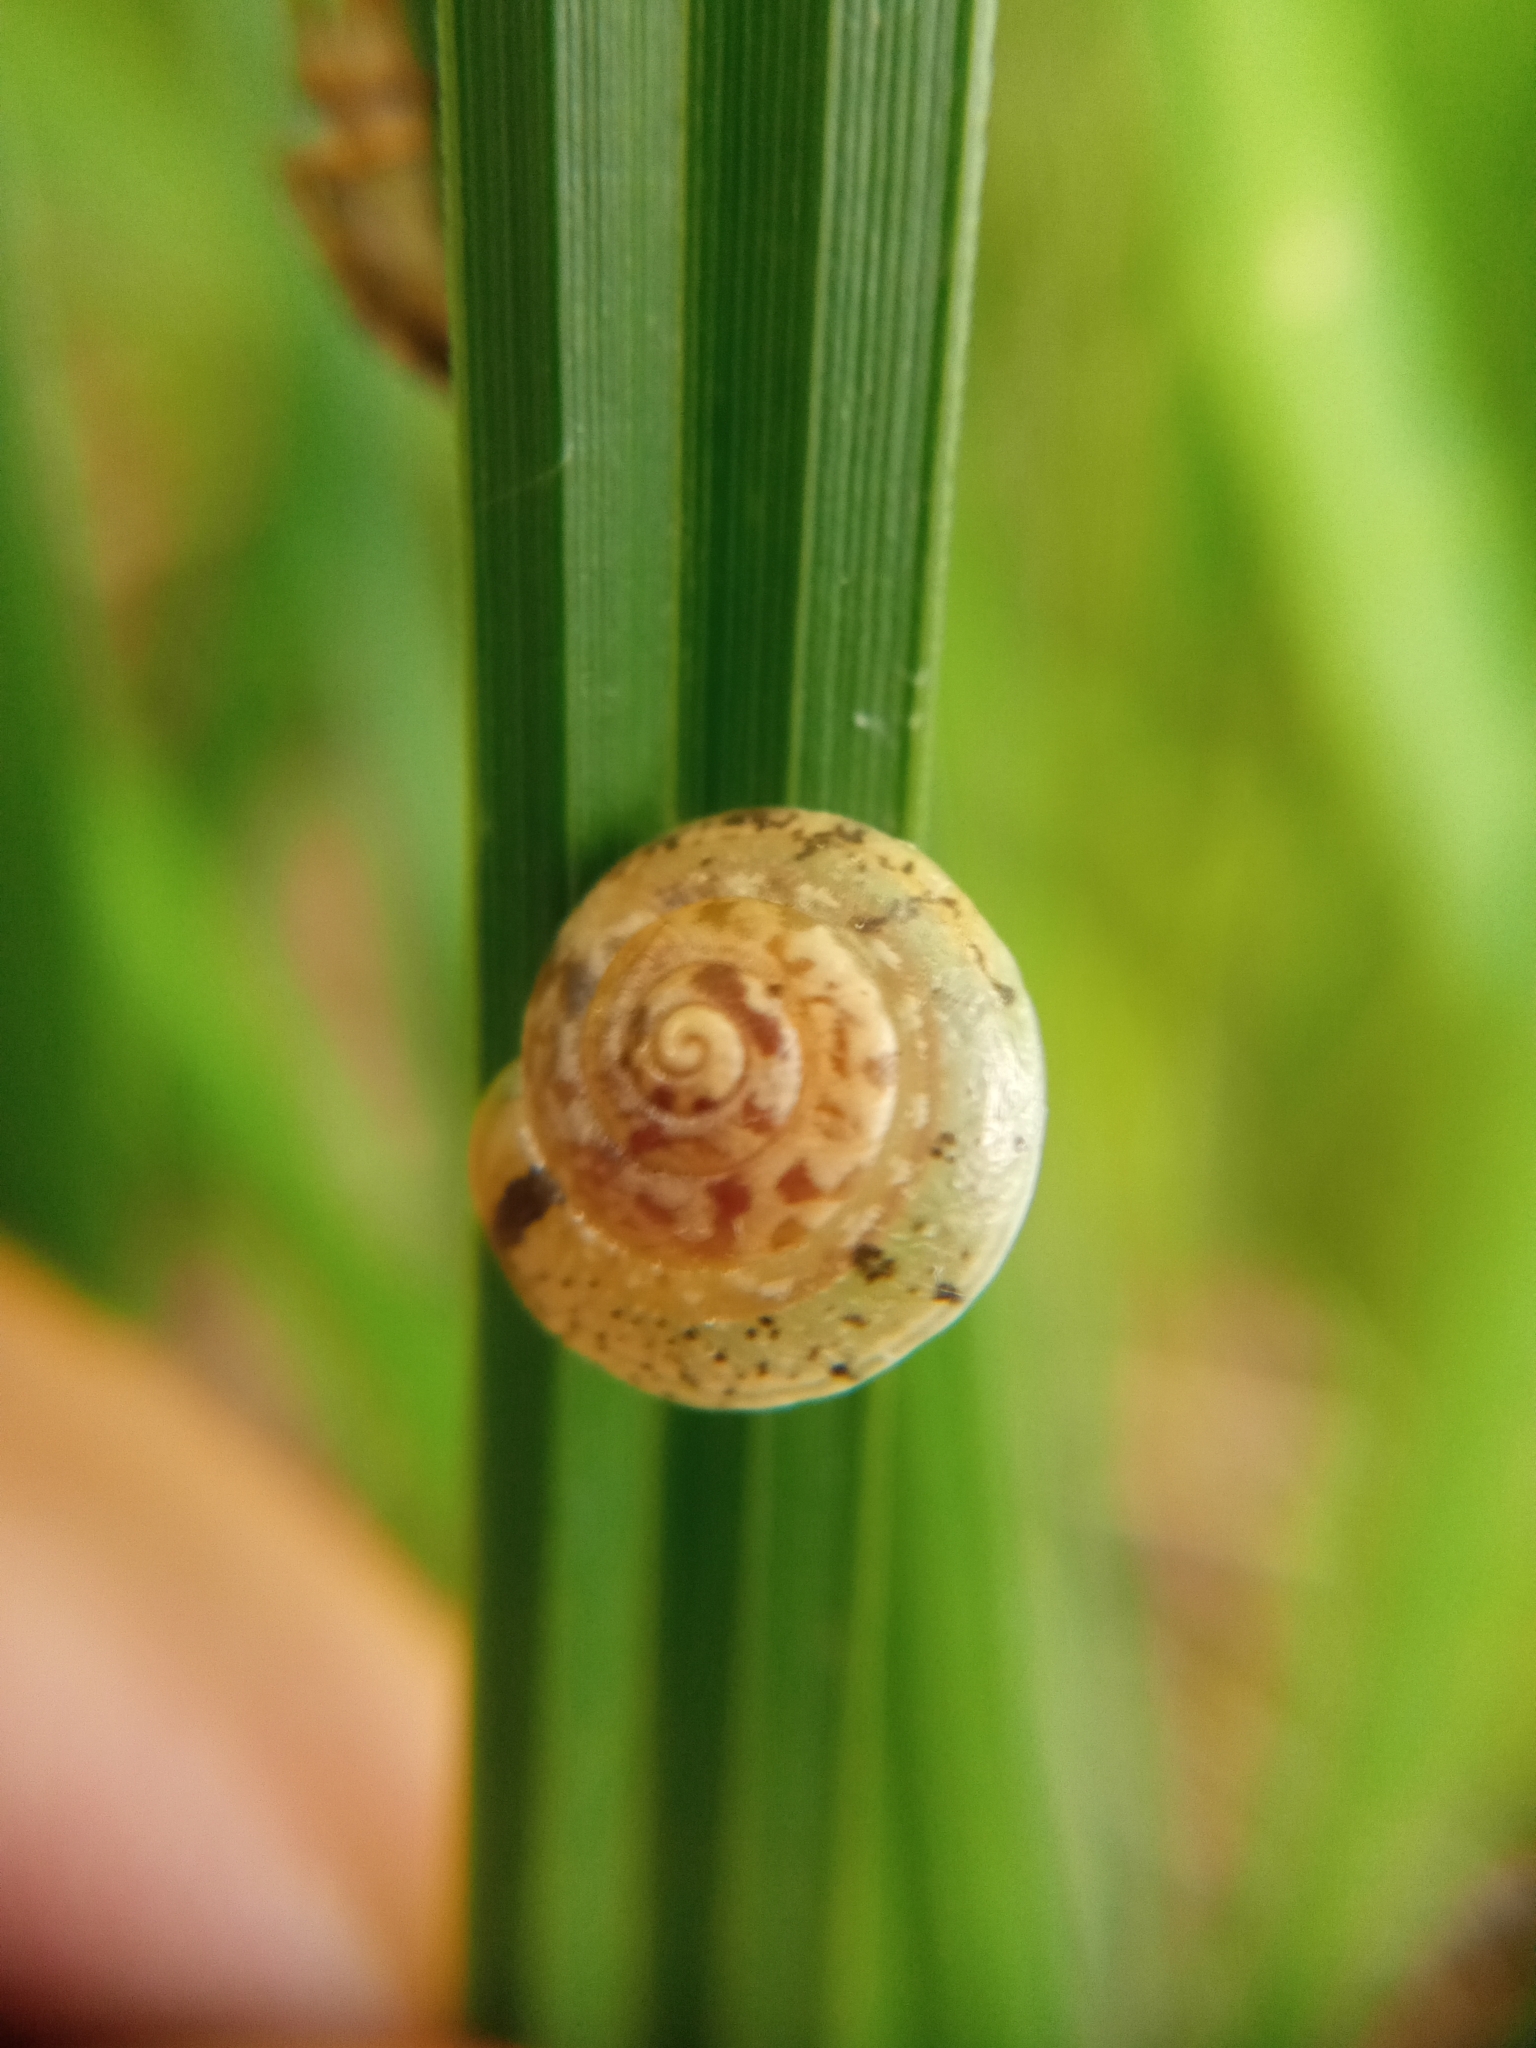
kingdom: Animalia
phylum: Mollusca
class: Gastropoda
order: Stylommatophora
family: Hygromiidae
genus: Hygromia
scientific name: Hygromia cinctella
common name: Girdled snail
